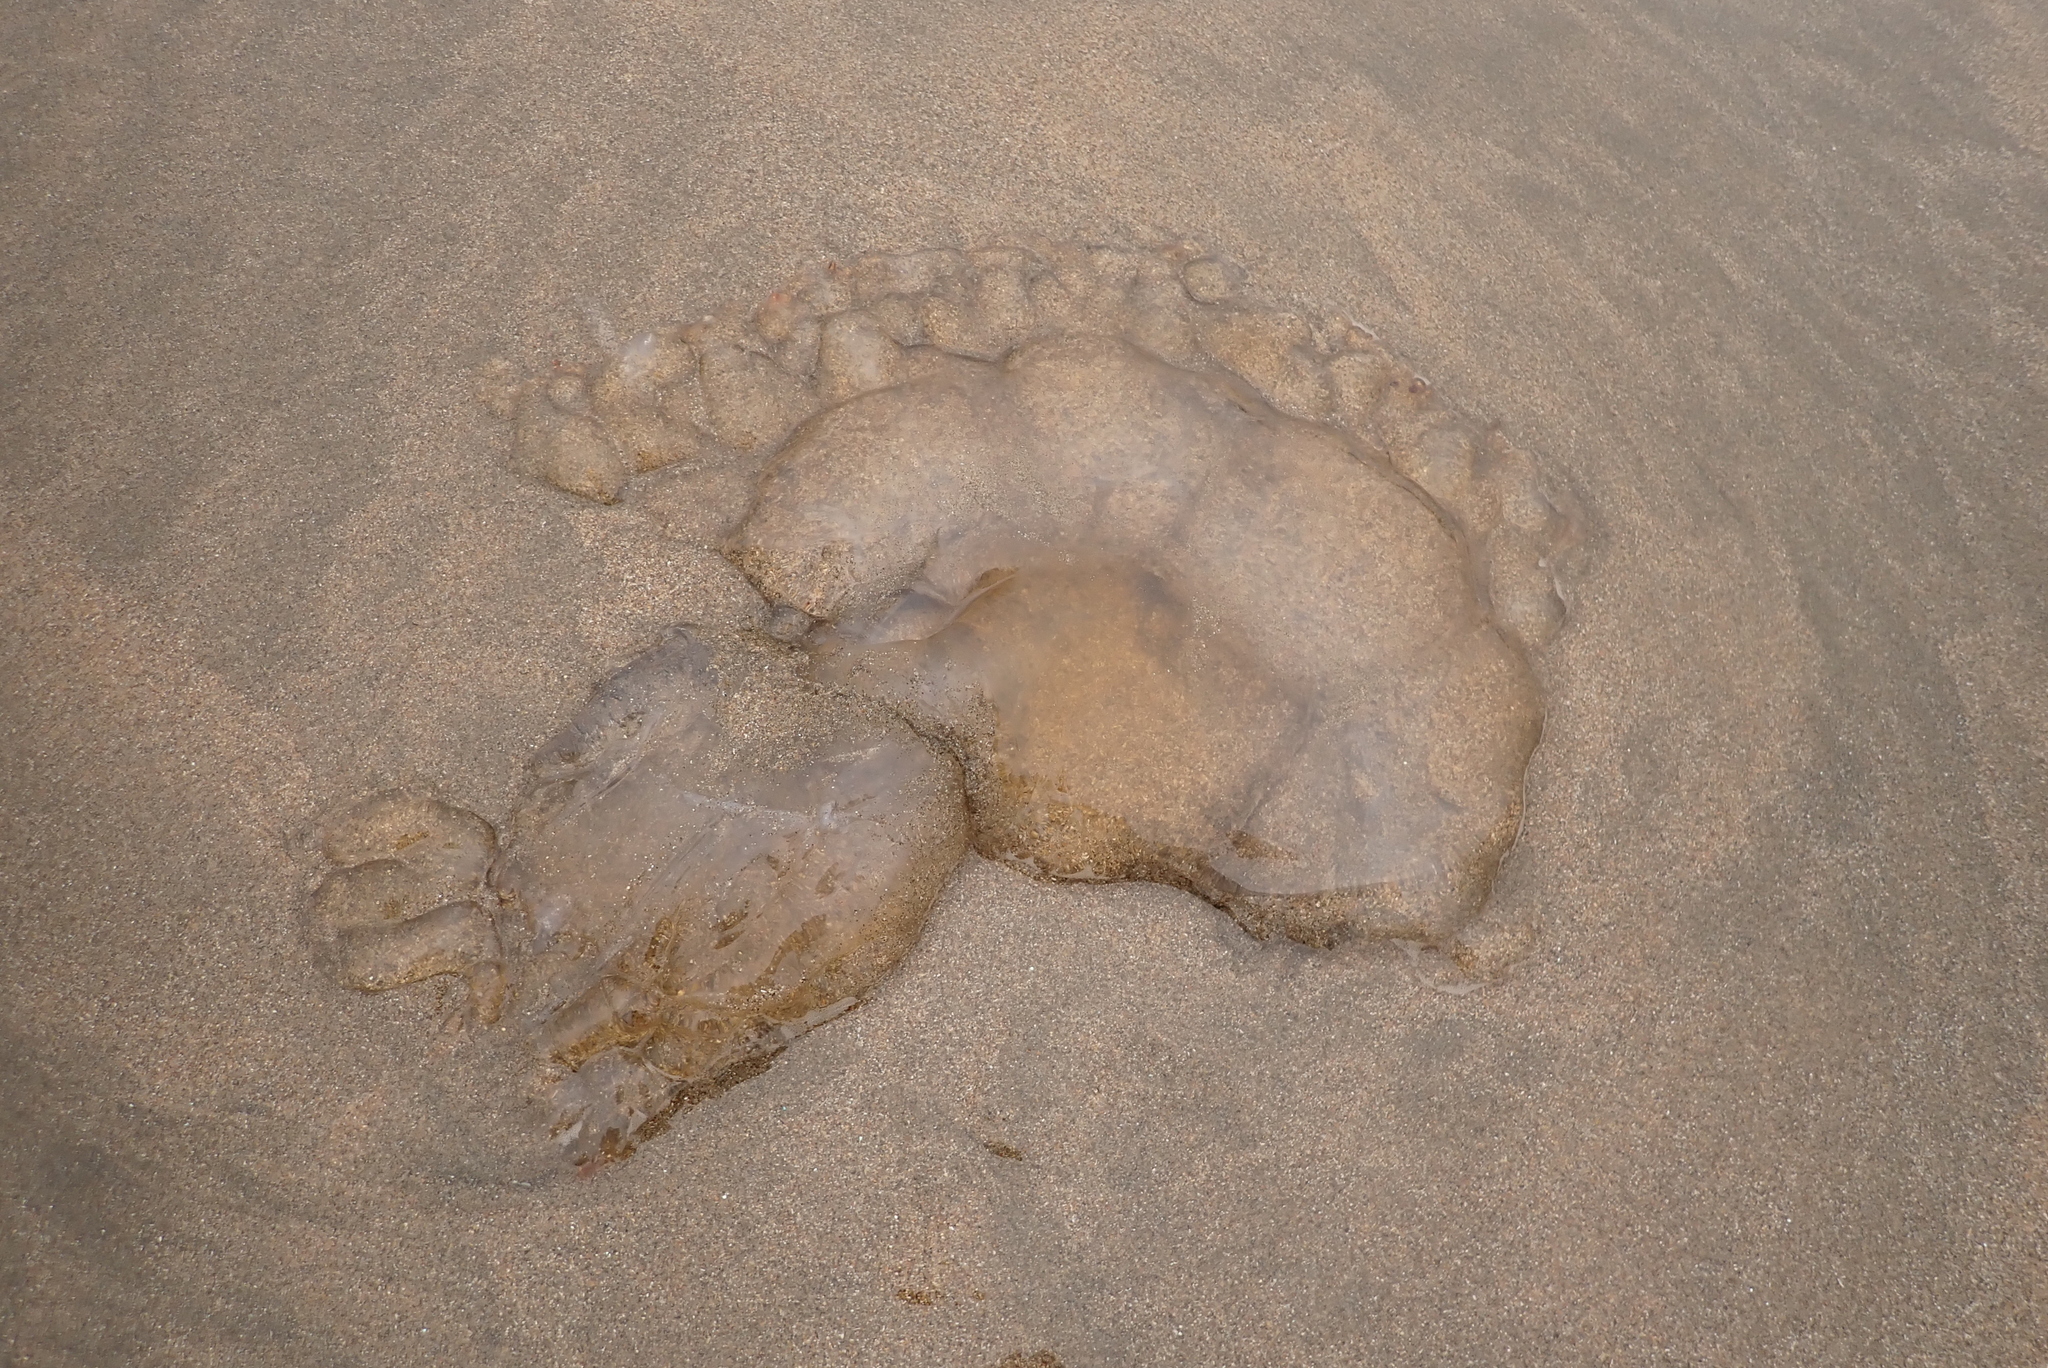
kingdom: Animalia
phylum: Cnidaria
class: Scyphozoa
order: Semaeostomeae
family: Pelagiidae
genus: Chrysaora
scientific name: Chrysaora fuscescens
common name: Sea nettle
